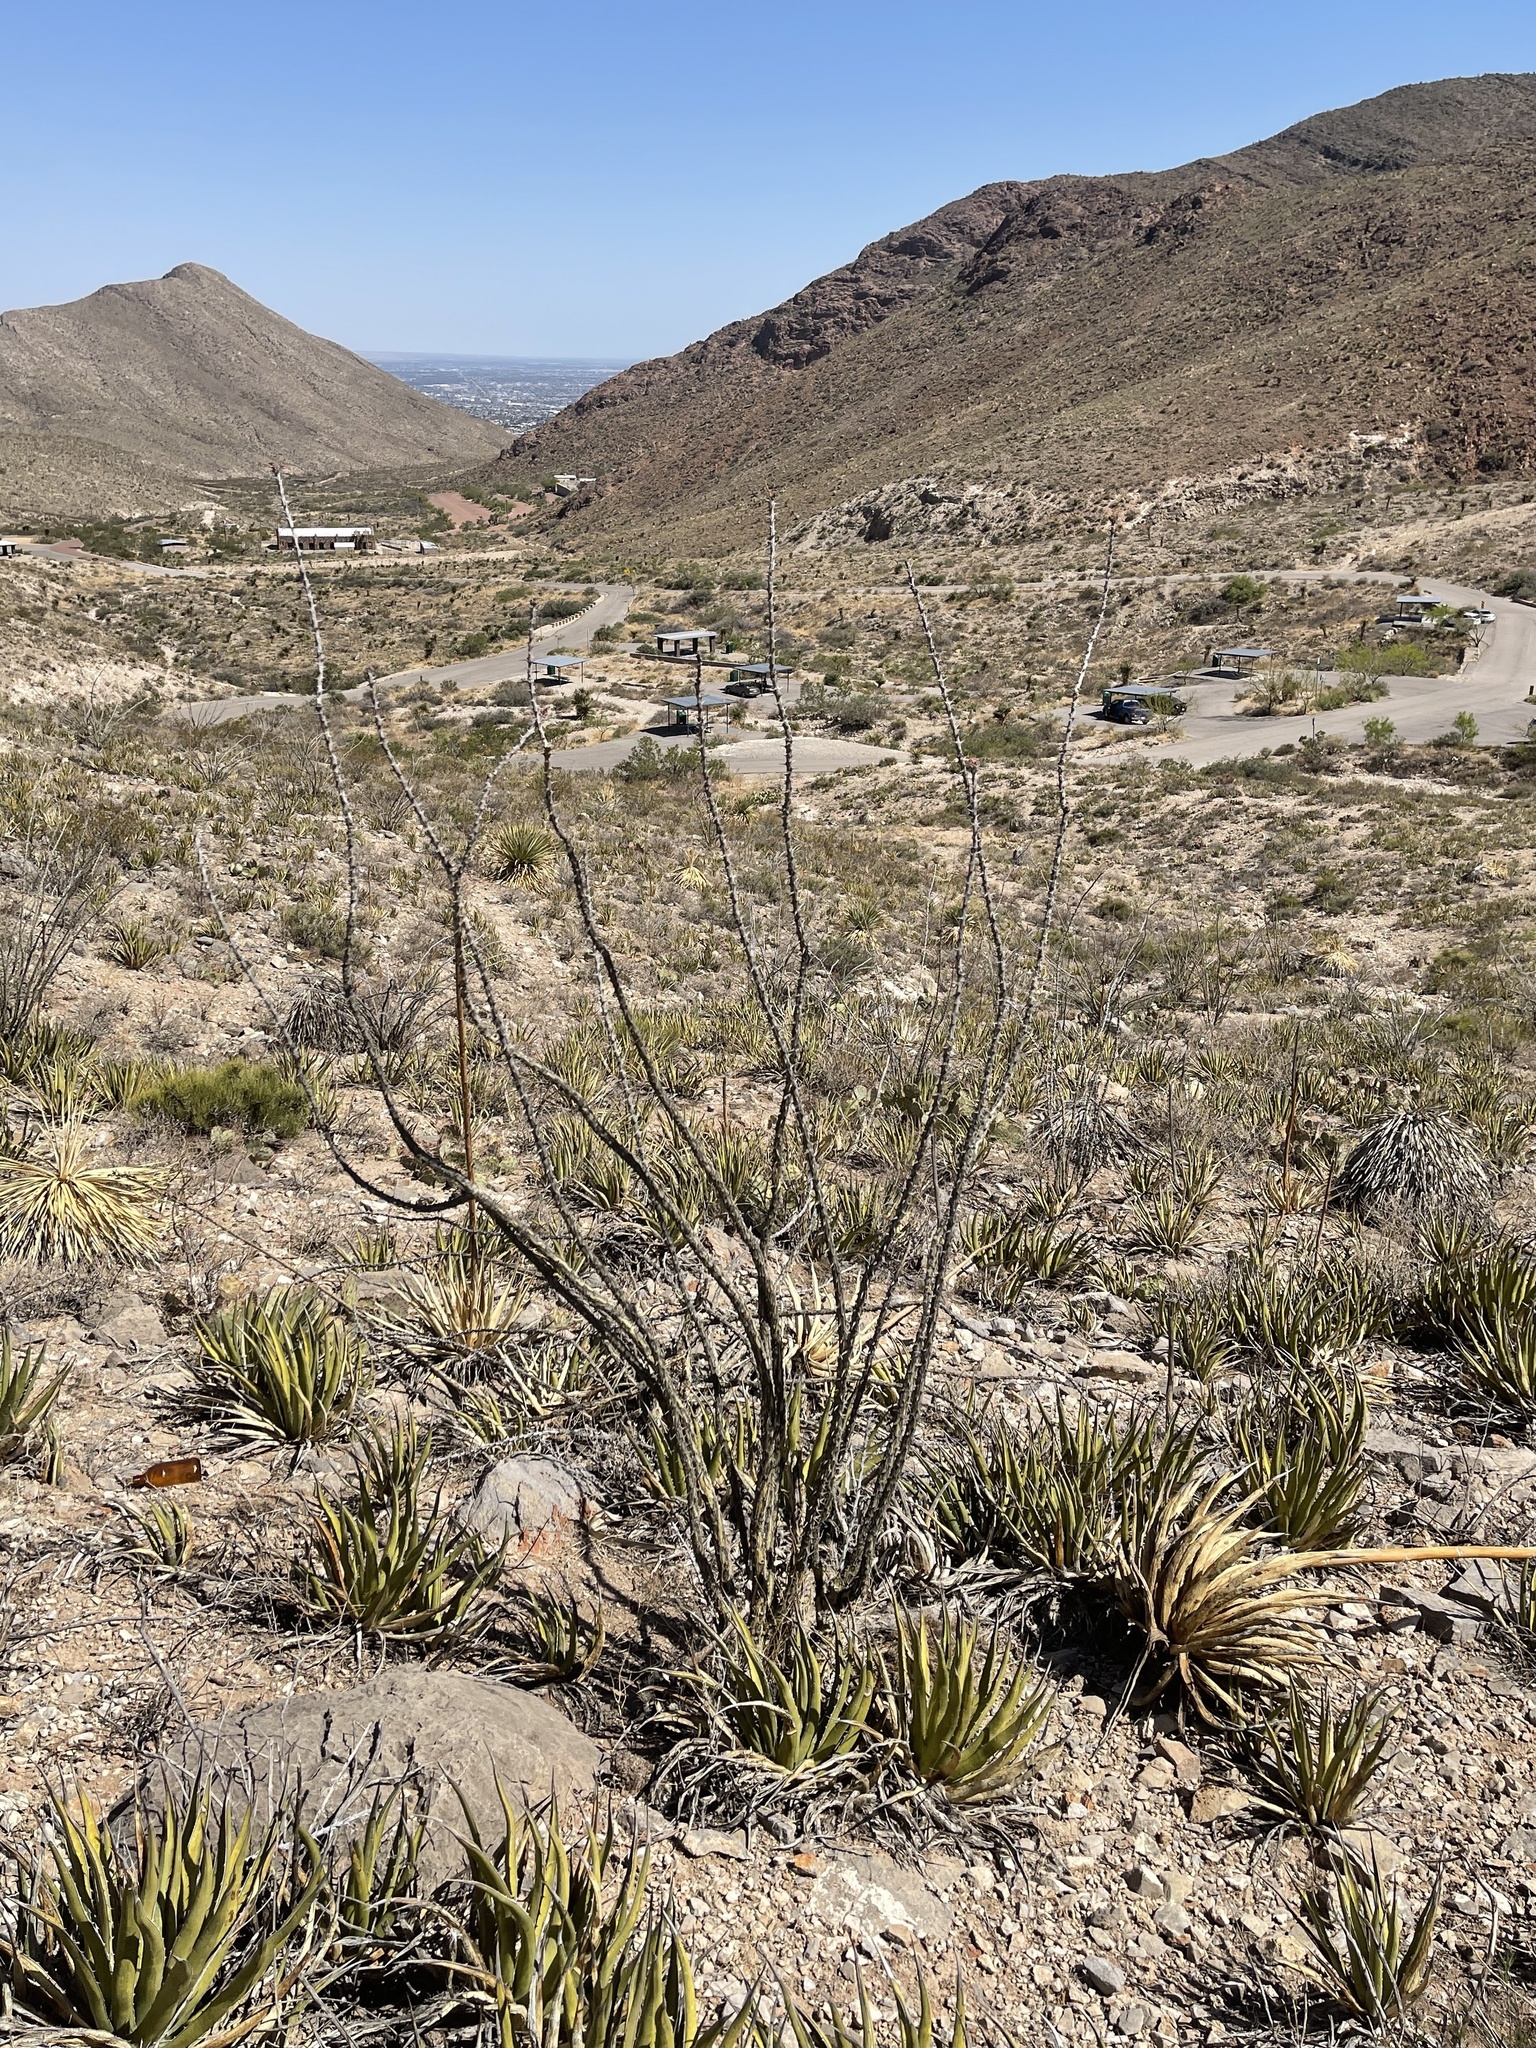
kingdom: Plantae
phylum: Tracheophyta
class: Magnoliopsida
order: Ericales
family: Fouquieriaceae
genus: Fouquieria
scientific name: Fouquieria splendens
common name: Vine-cactus
